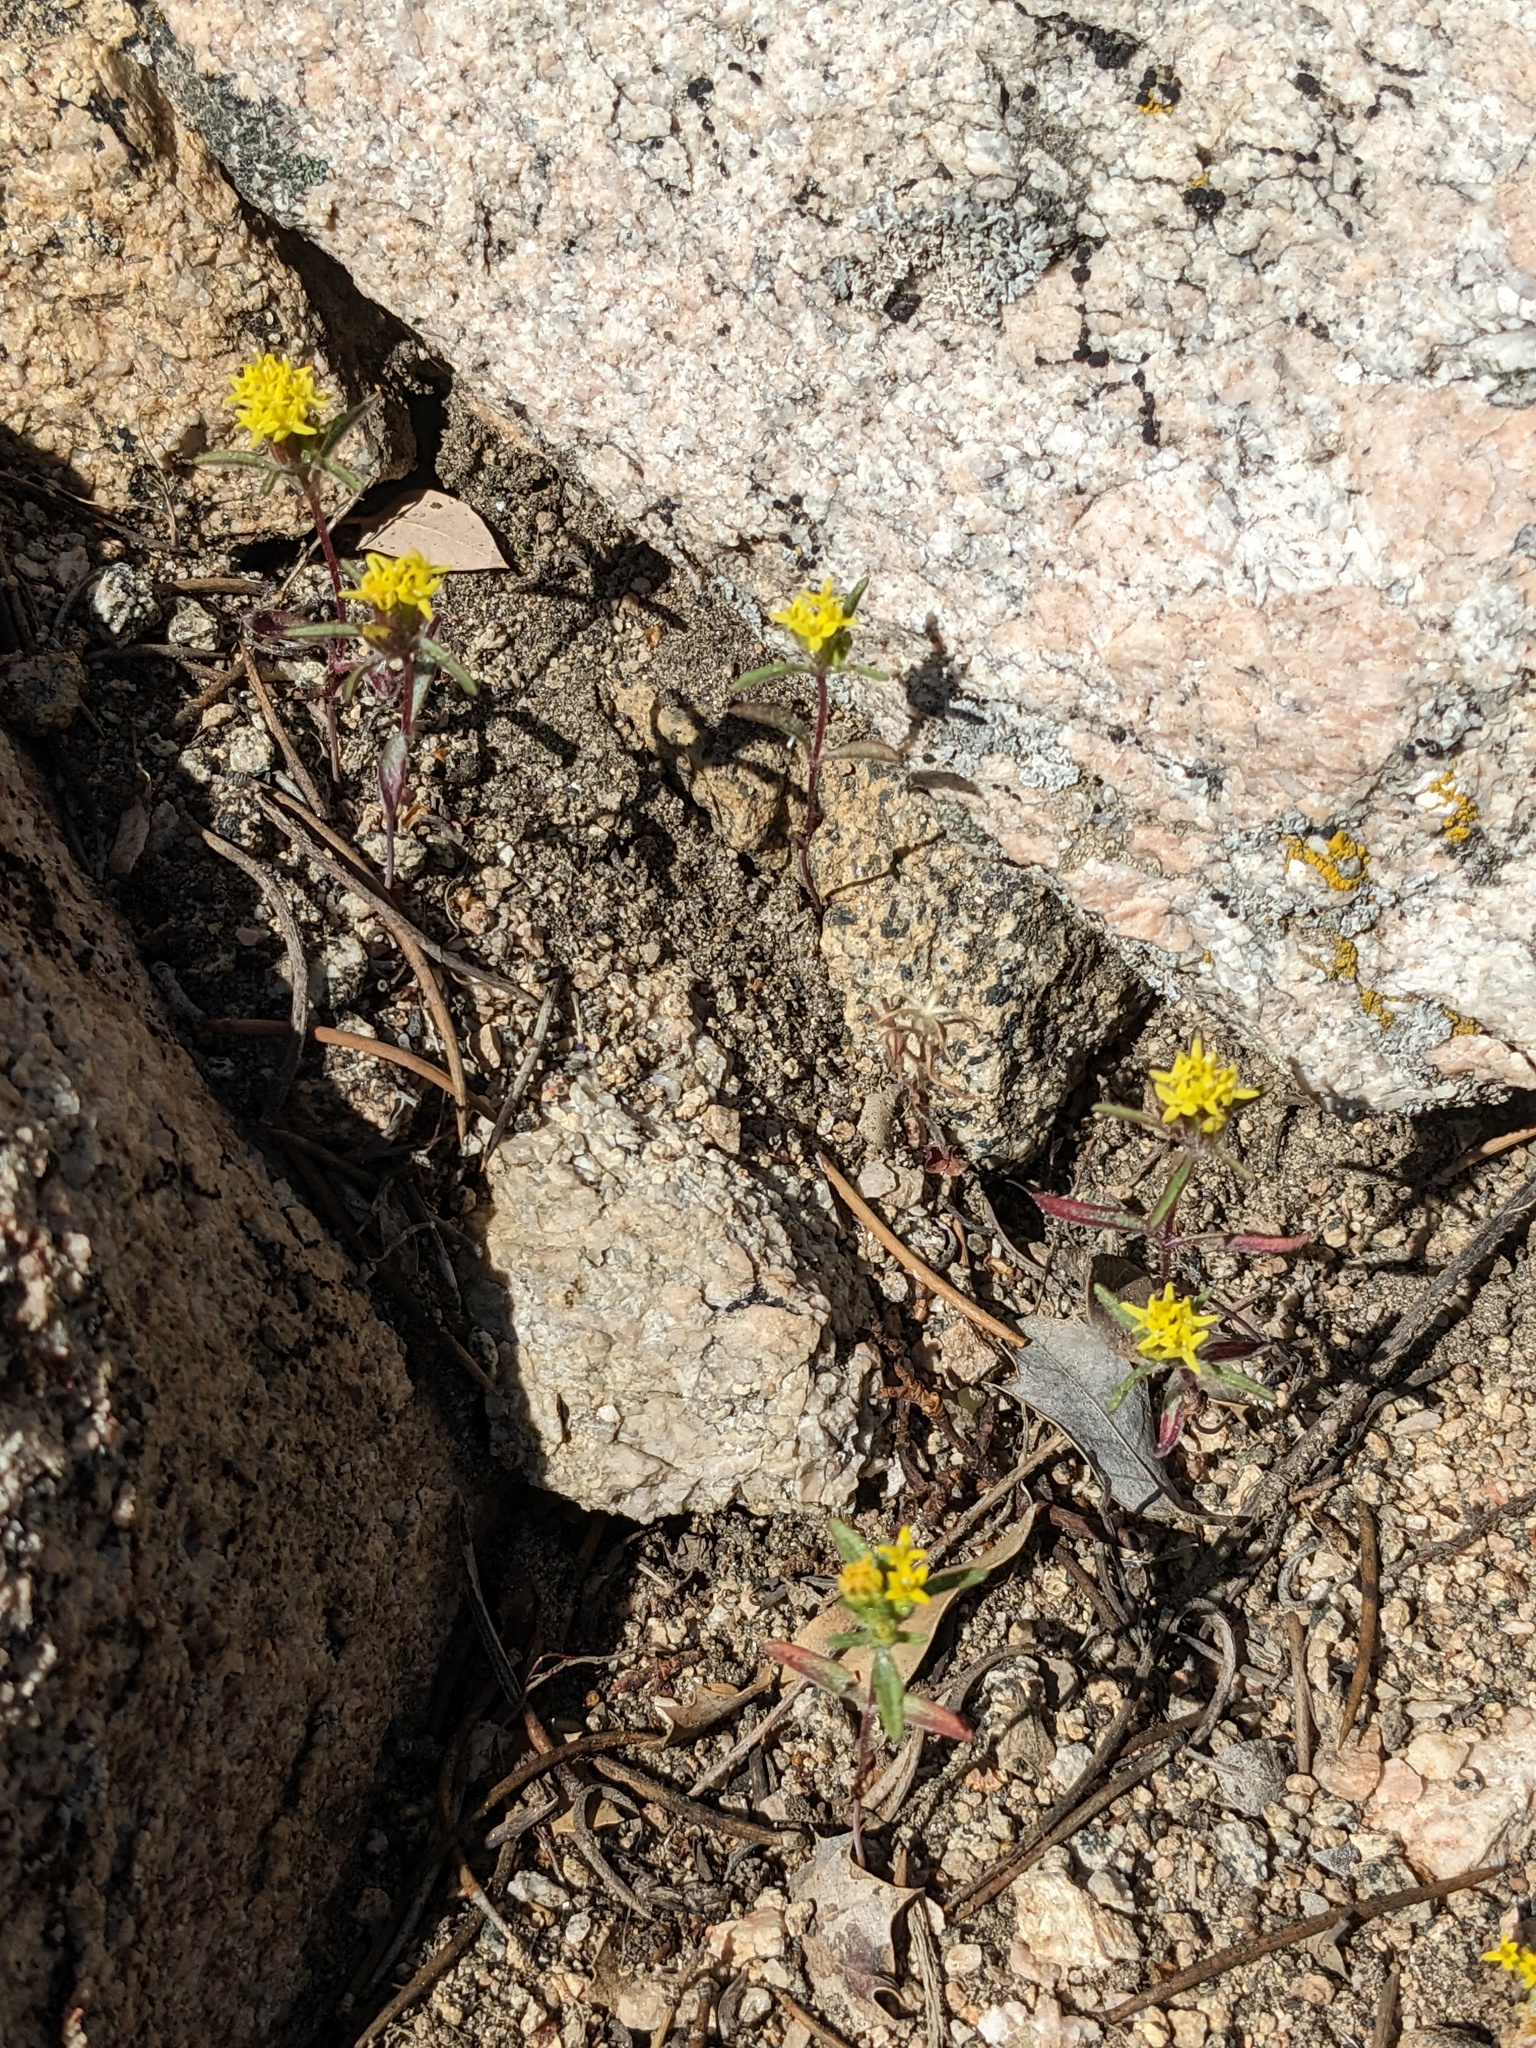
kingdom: Plantae
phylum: Tracheophyta
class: Magnoliopsida
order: Asterales
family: Asteraceae
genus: Orochaenactis
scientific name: Orochaenactis thysanocarpha
